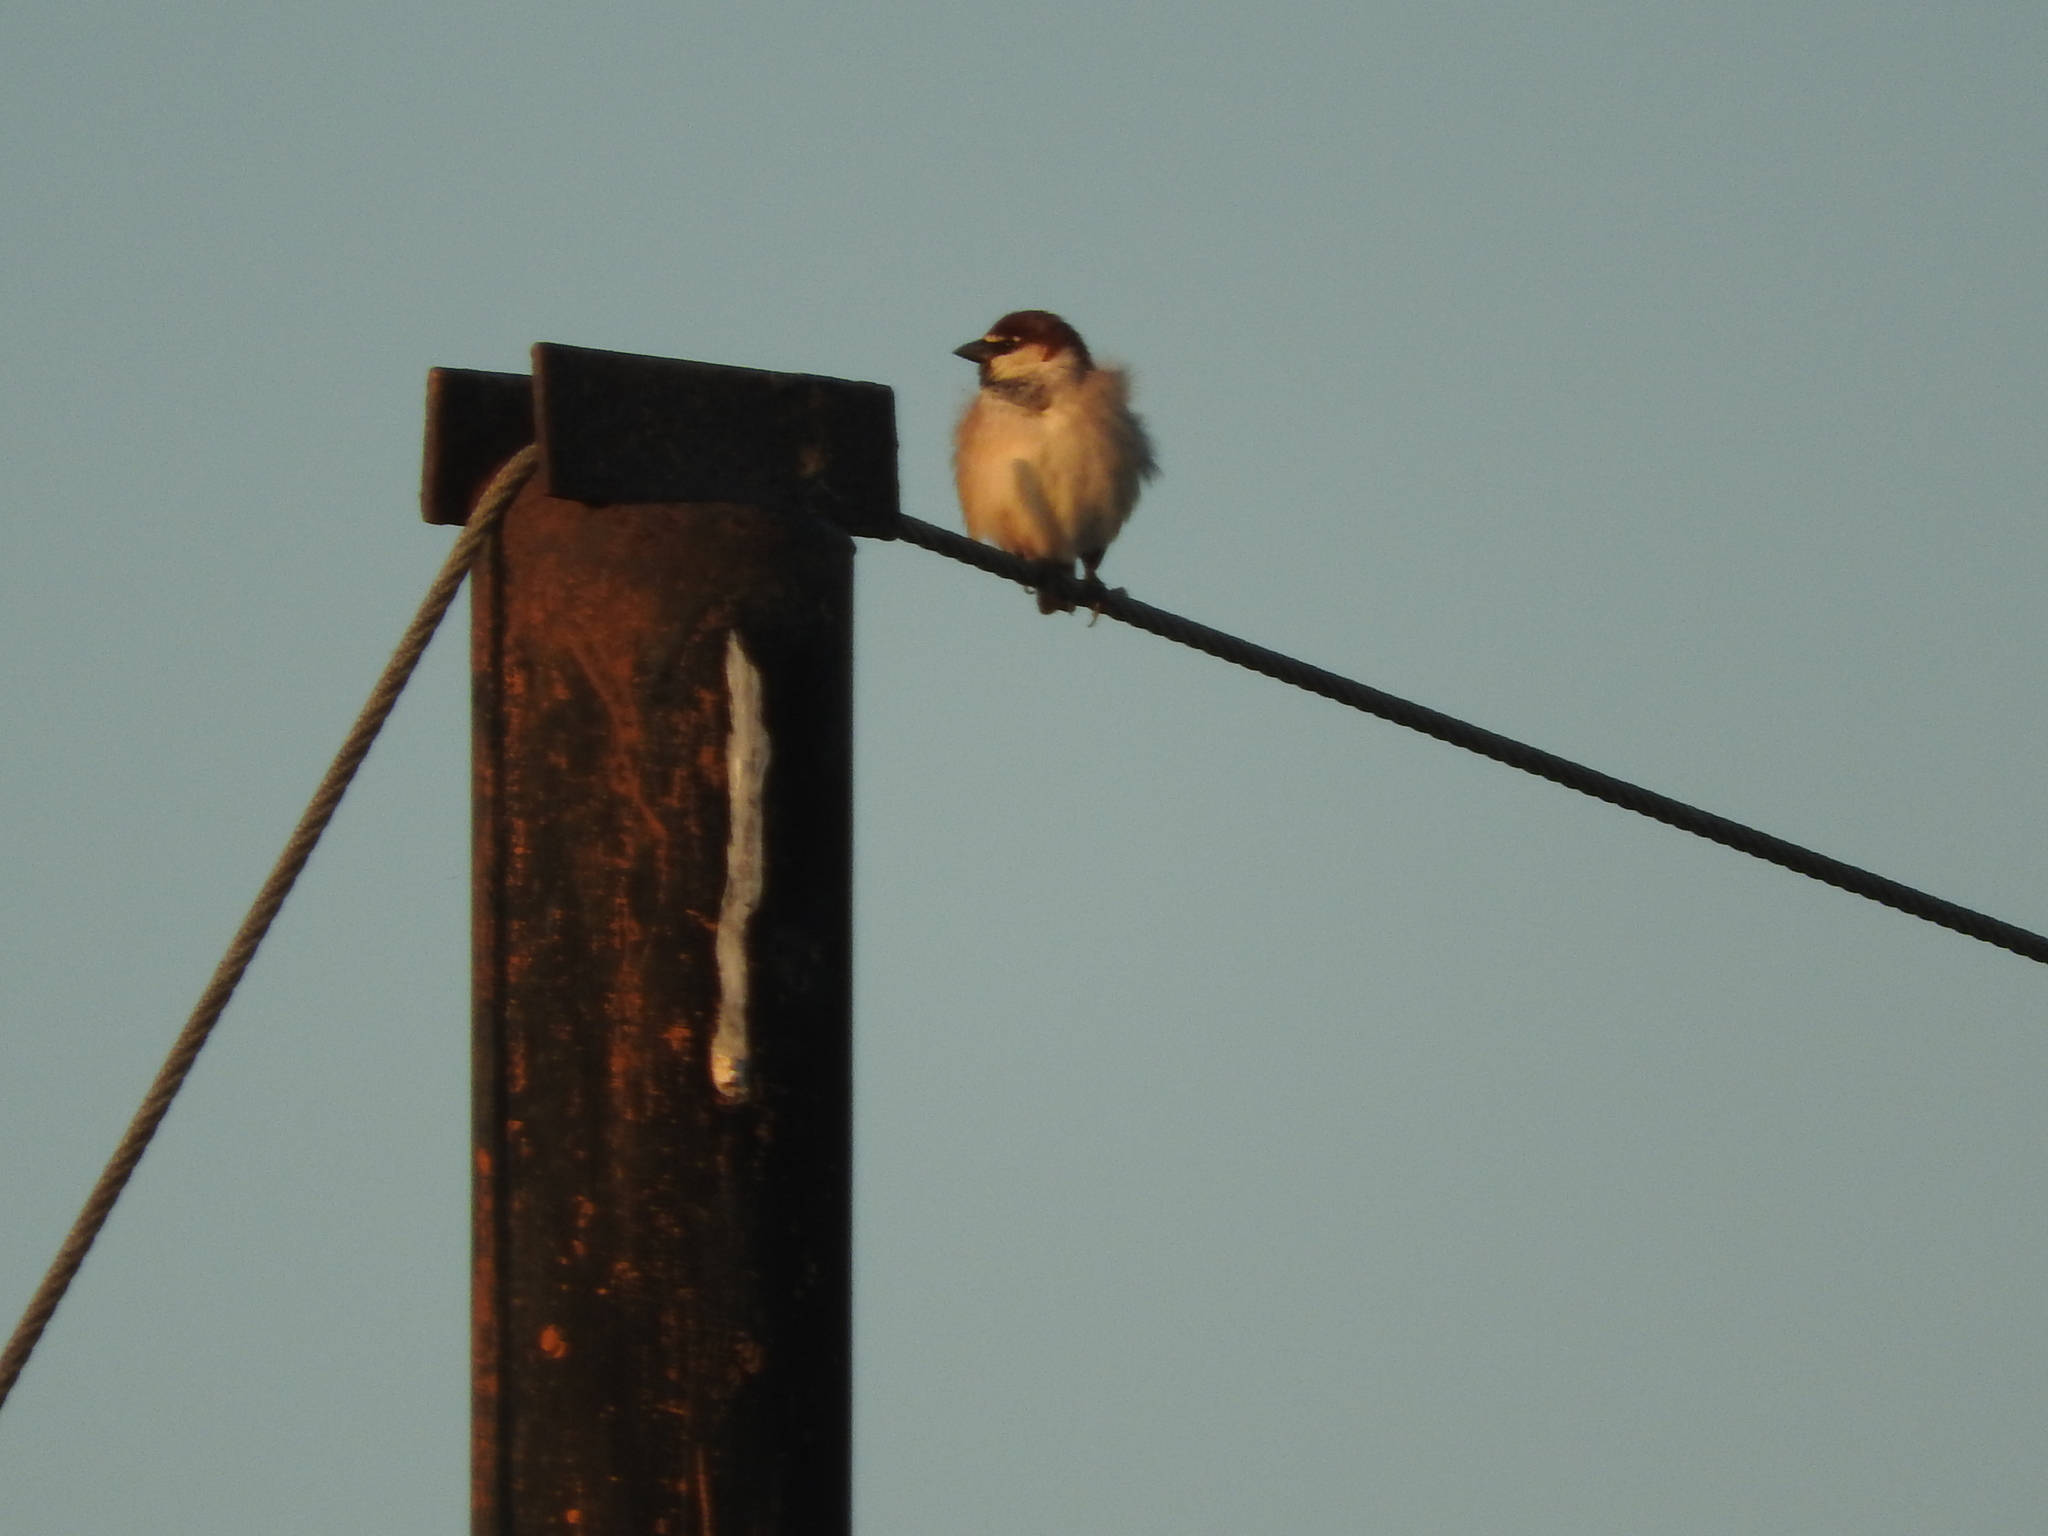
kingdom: Animalia
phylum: Chordata
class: Aves
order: Passeriformes
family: Passeridae
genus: Passer
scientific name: Passer italiae
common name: Italian sparrow
